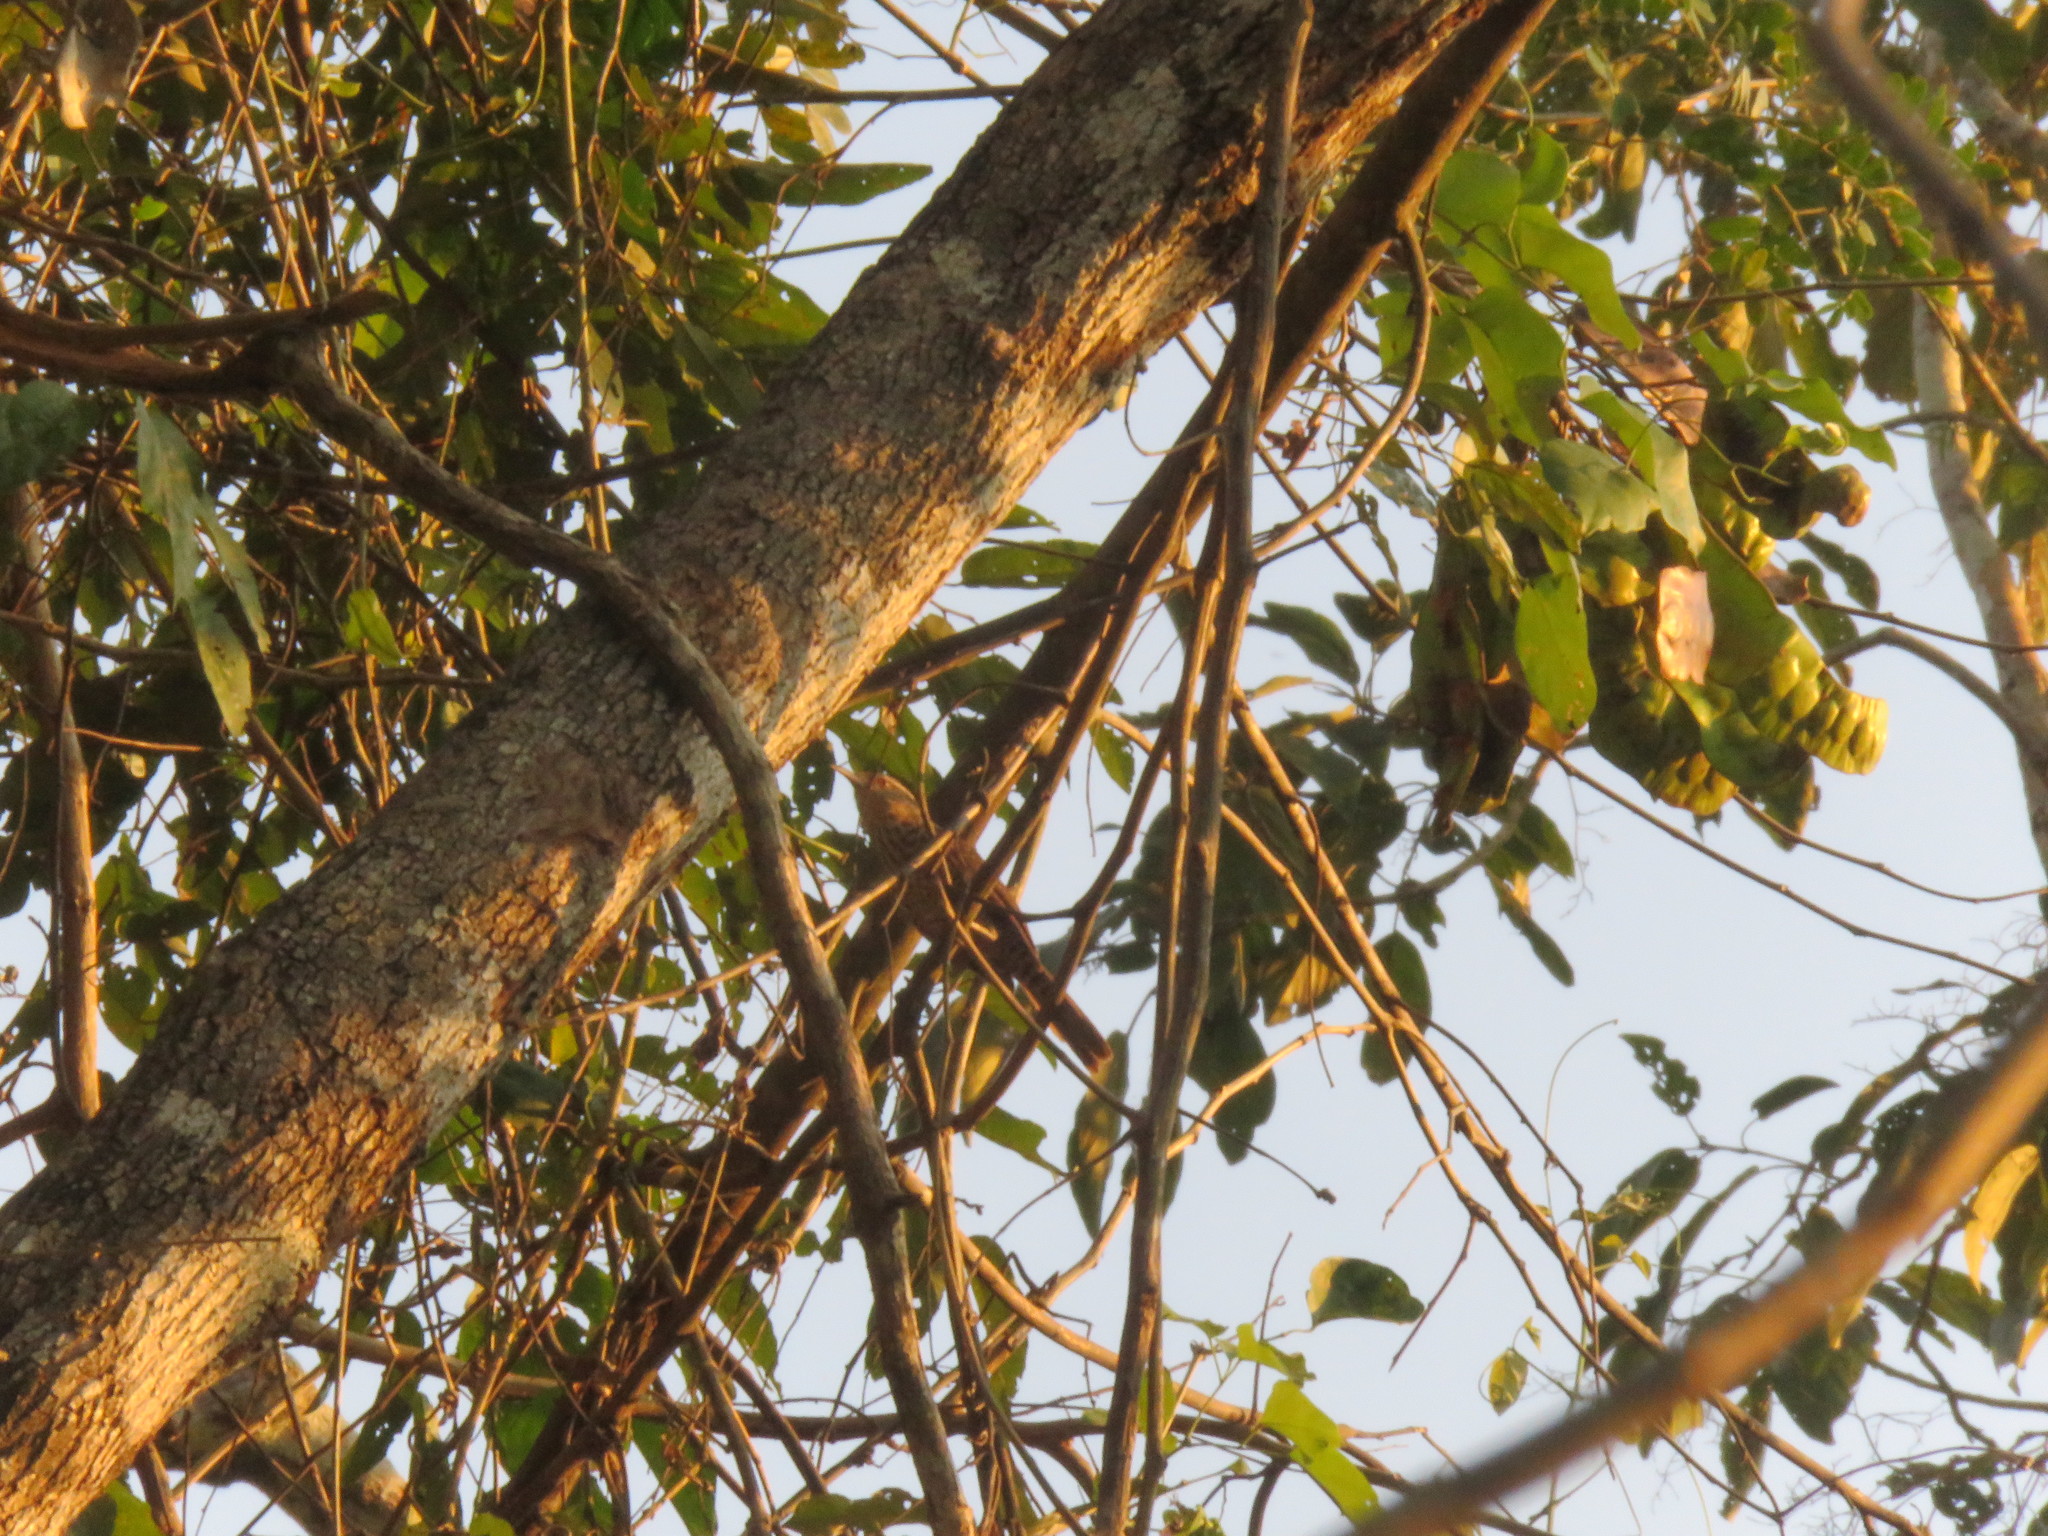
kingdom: Animalia
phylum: Chordata
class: Aves
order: Passeriformes
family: Troglodytidae
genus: Campylorhynchus
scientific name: Campylorhynchus turdinus
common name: Thrush-like wren
